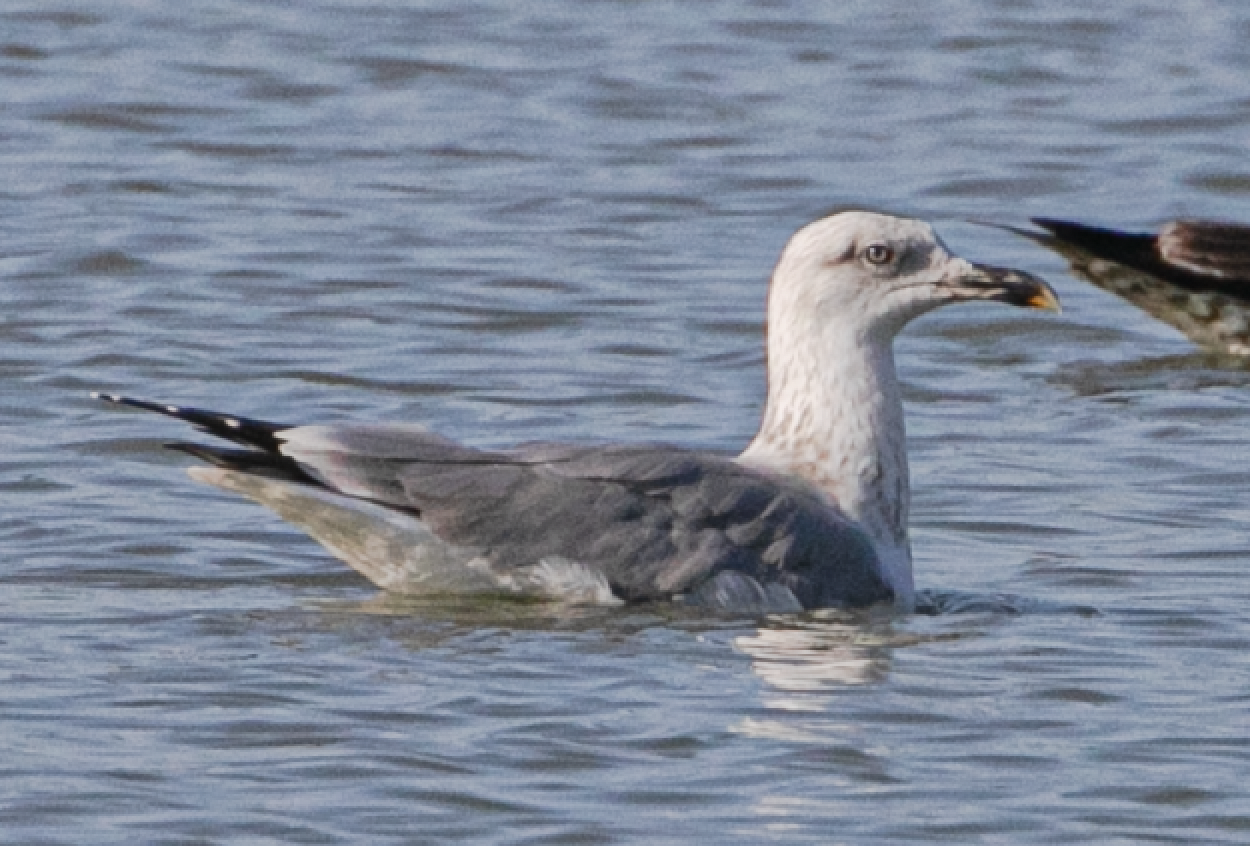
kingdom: Animalia
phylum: Chordata
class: Aves
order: Charadriiformes
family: Laridae
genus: Larus
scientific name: Larus michahellis
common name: Yellow-legged gull
